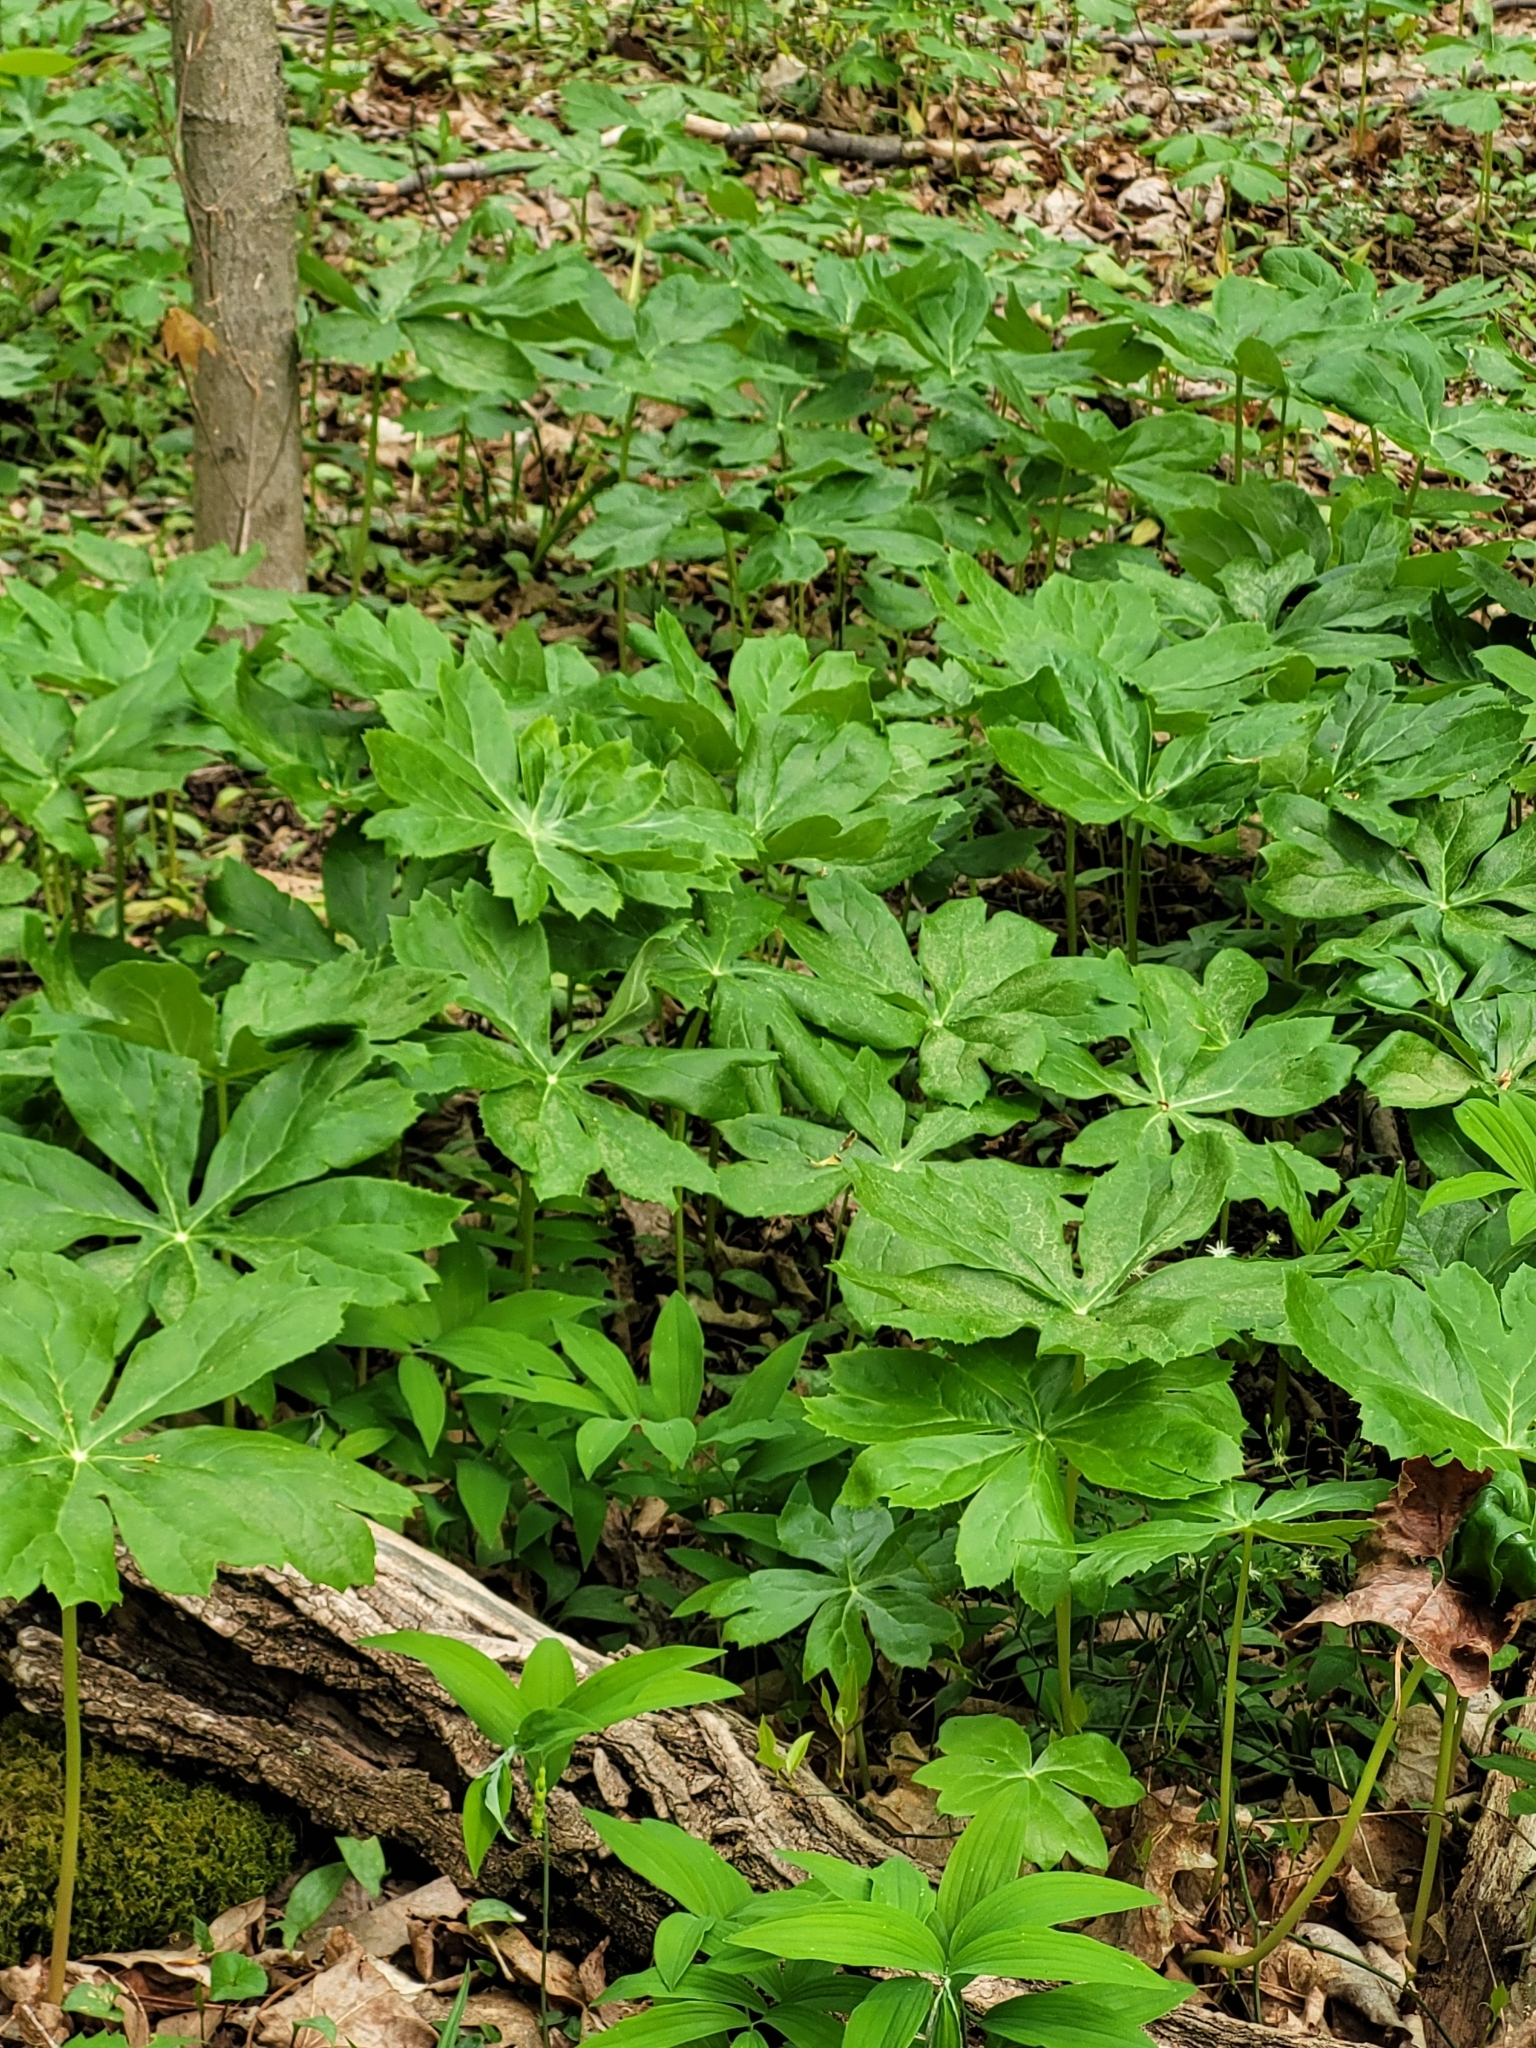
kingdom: Plantae
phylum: Tracheophyta
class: Magnoliopsida
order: Ranunculales
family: Berberidaceae
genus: Podophyllum
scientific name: Podophyllum peltatum
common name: Wild mandrake
